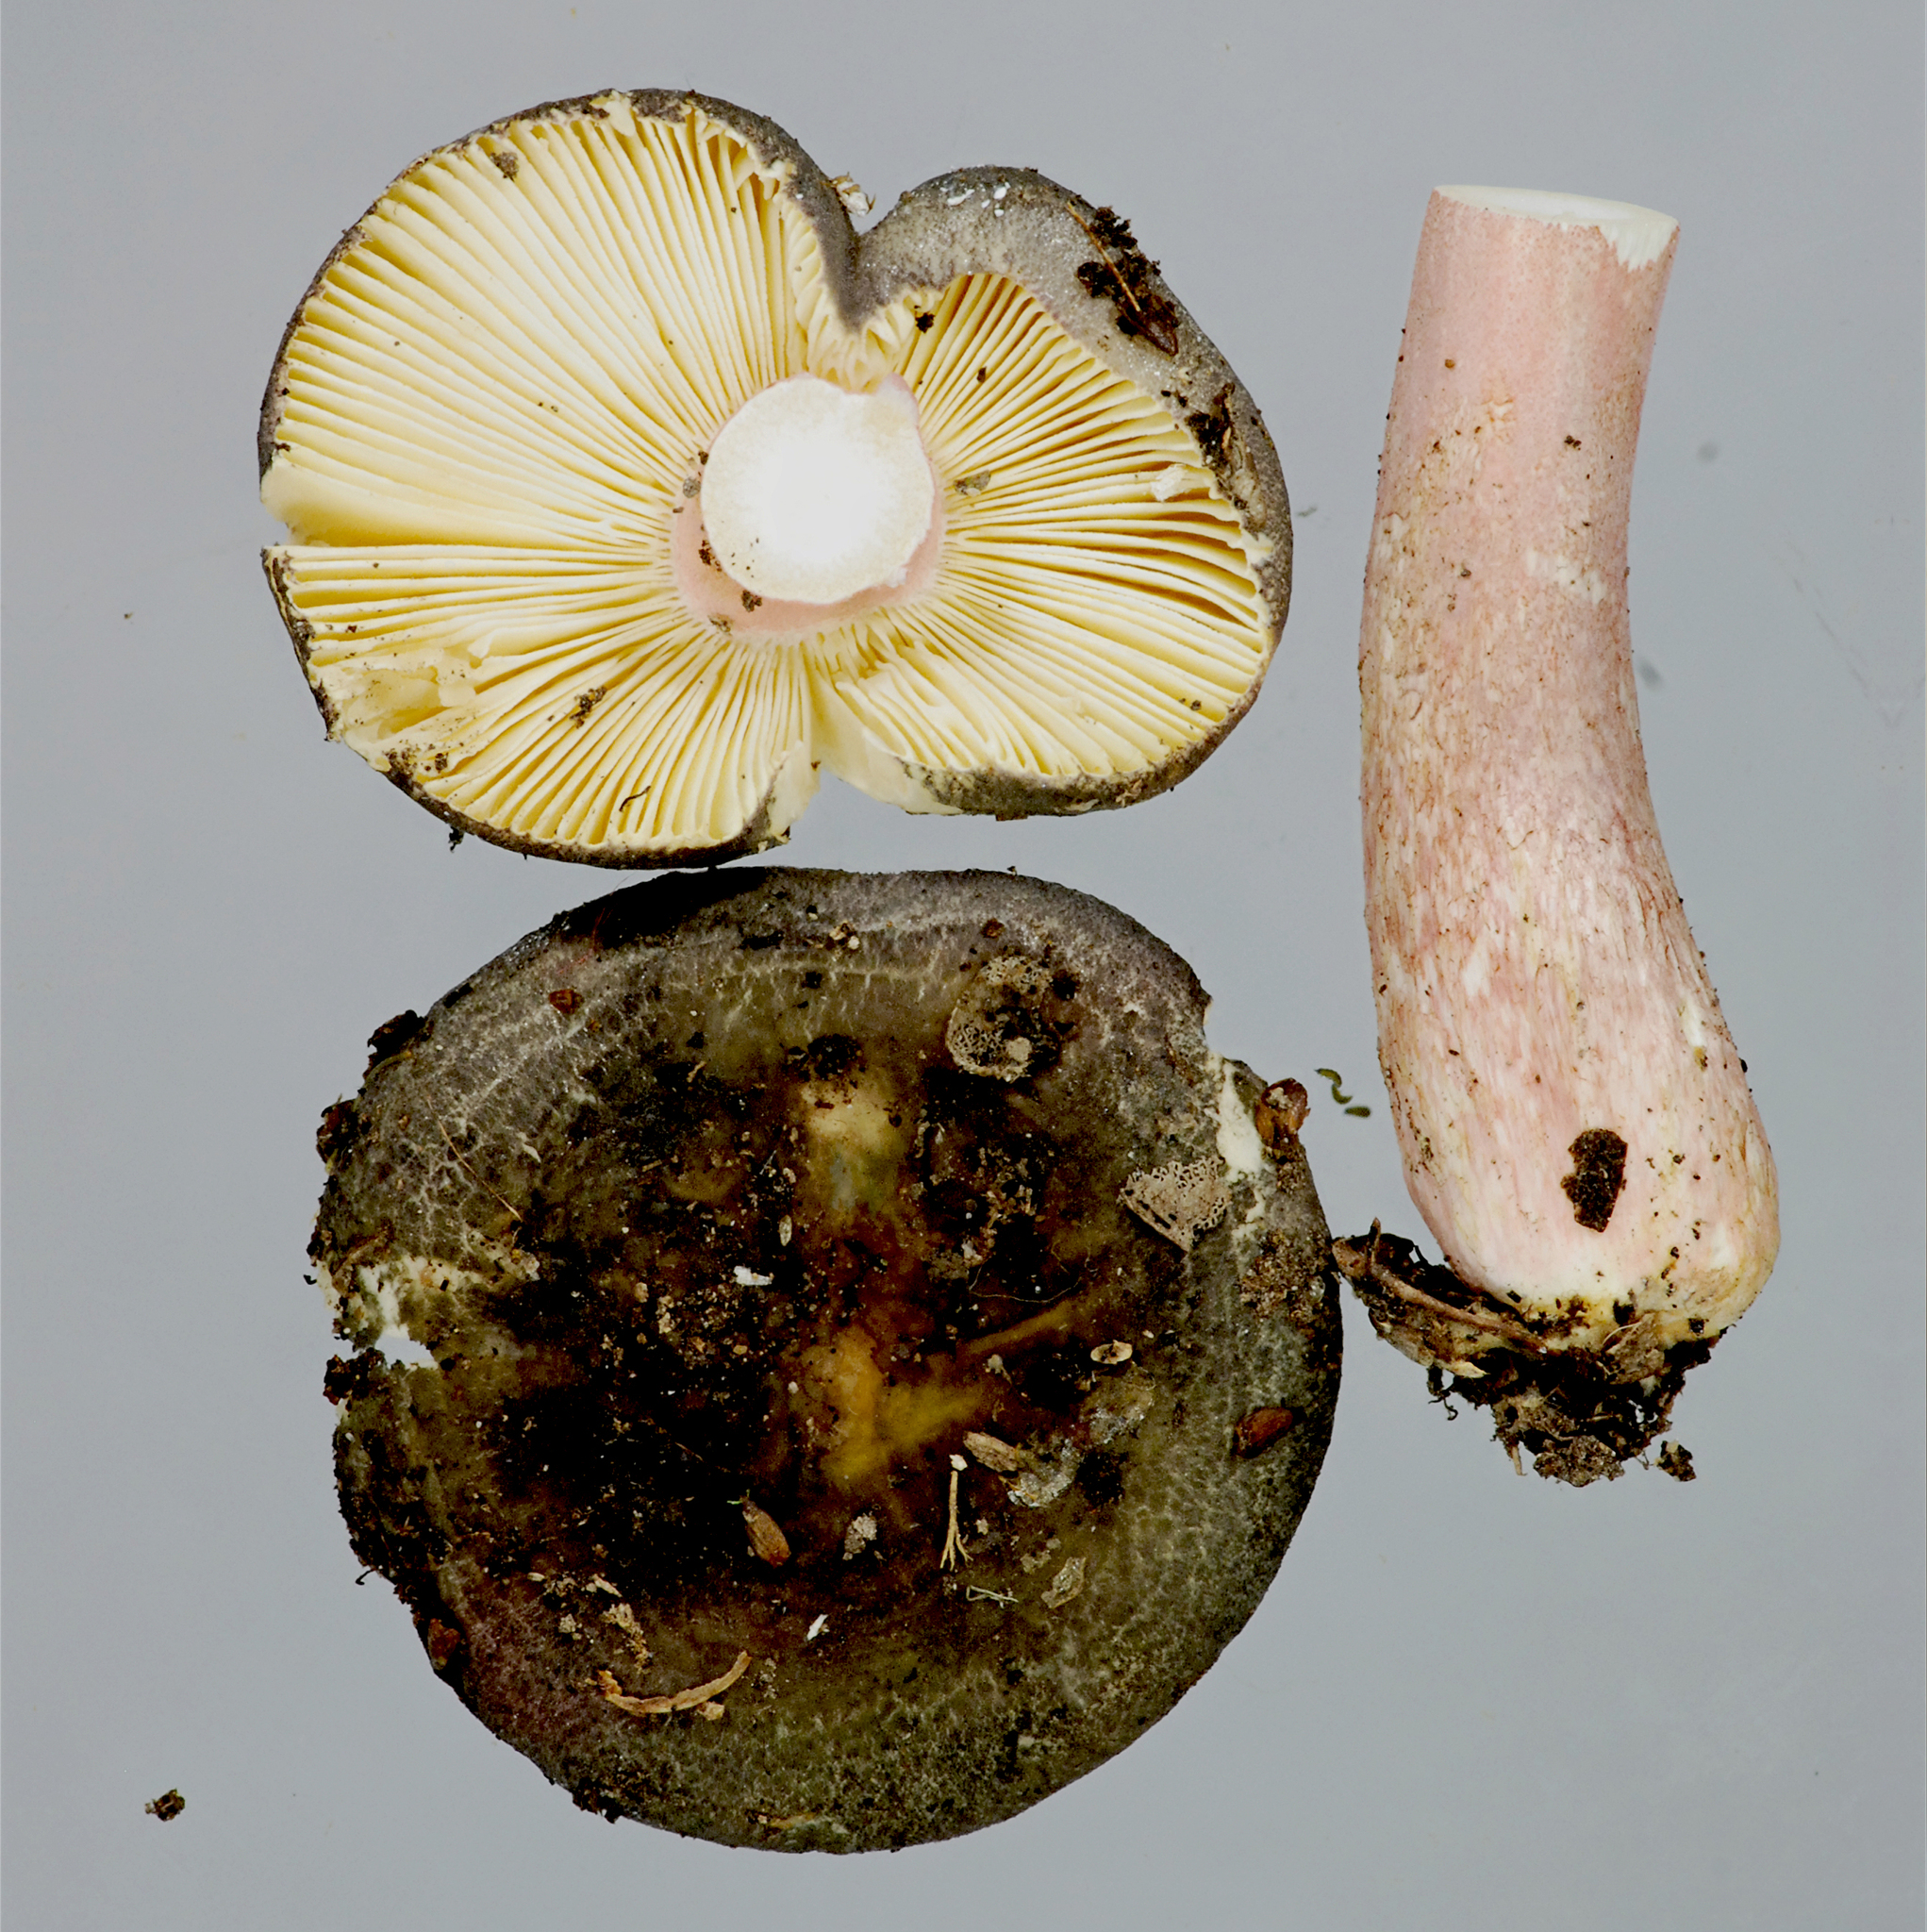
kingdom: Fungi
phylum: Basidiomycota
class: Agaricomycetes
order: Russulales
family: Russulaceae
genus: Russula
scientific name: Russula roseostipitata
